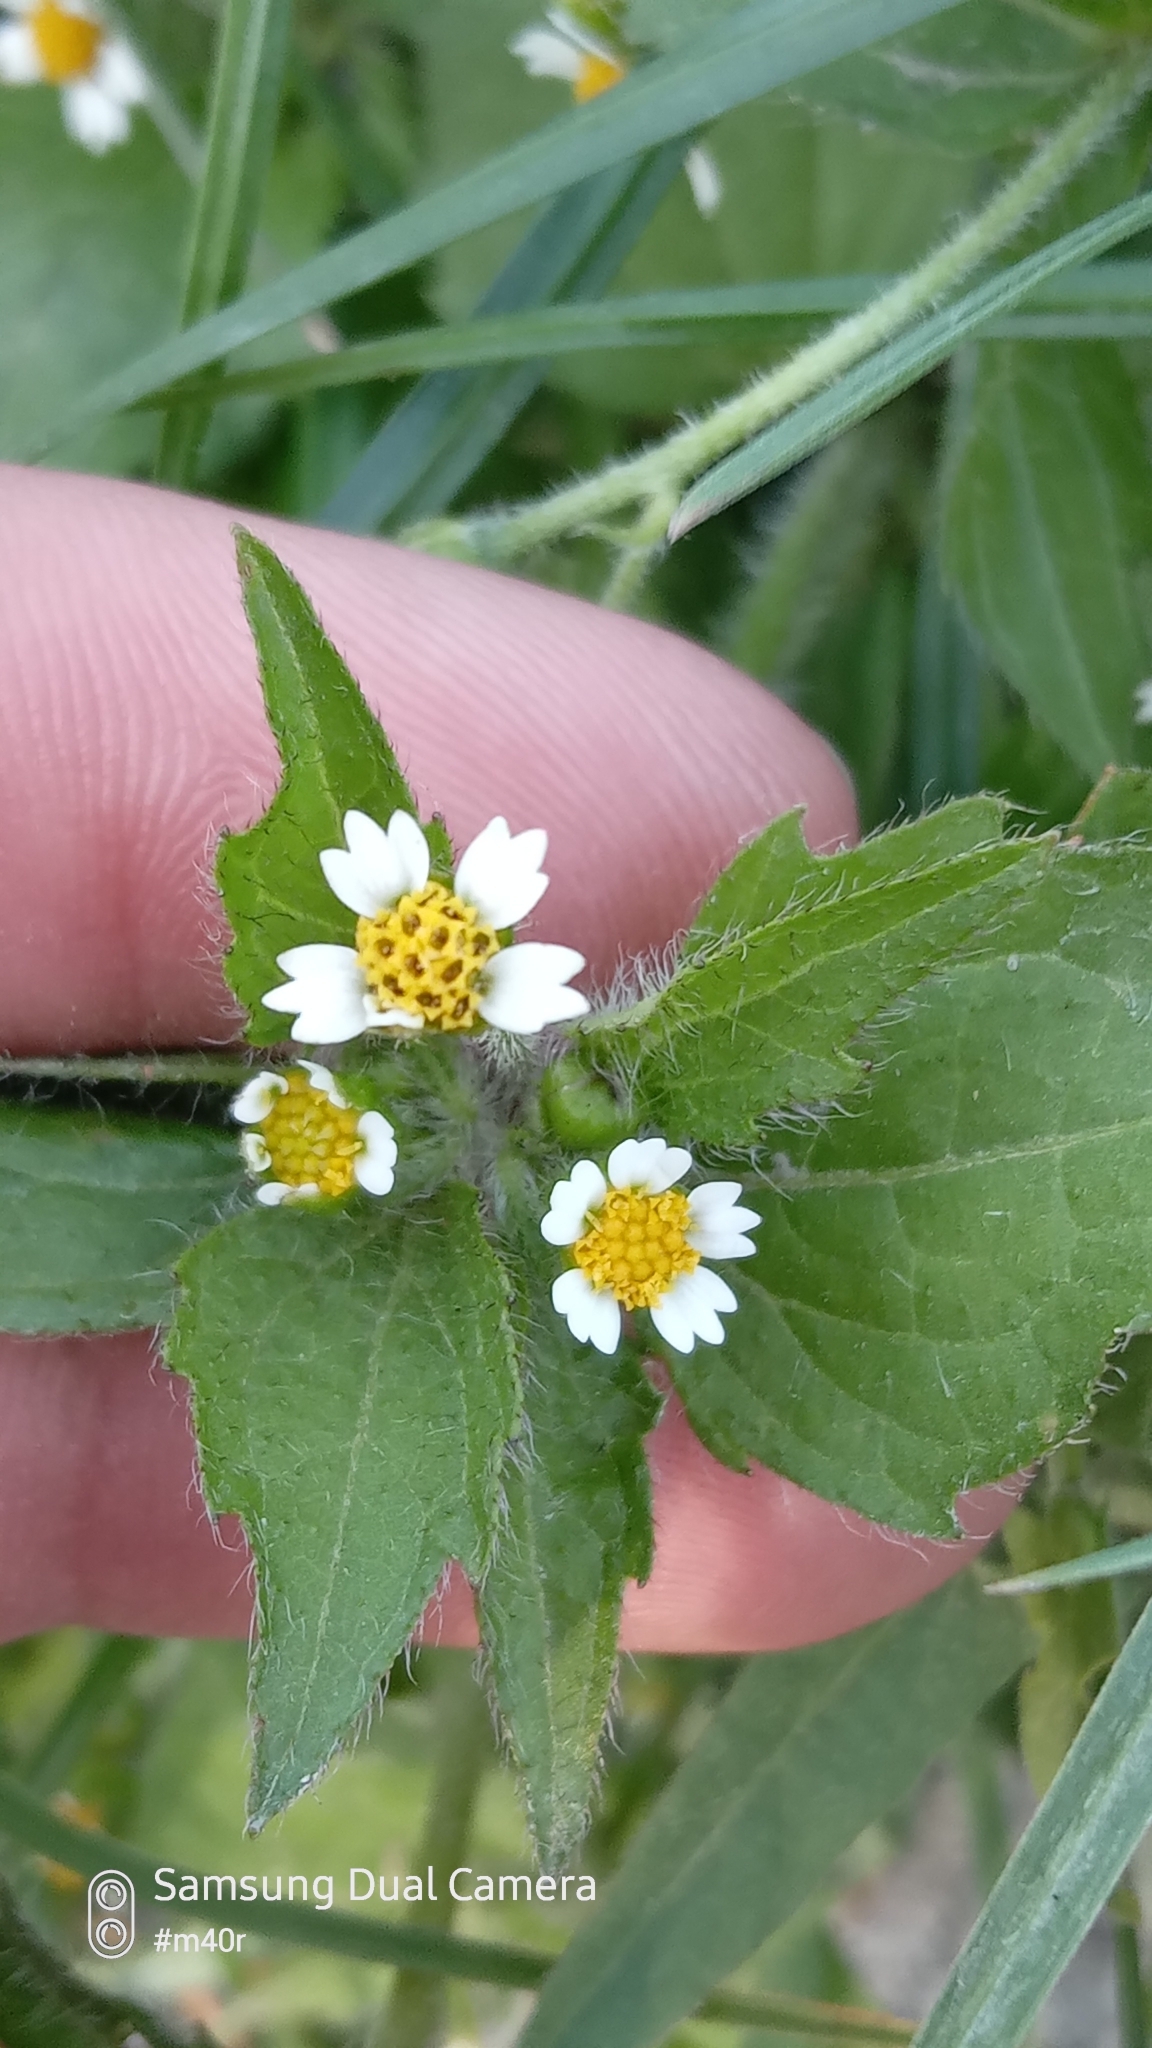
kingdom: Plantae
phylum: Tracheophyta
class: Magnoliopsida
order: Asterales
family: Asteraceae
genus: Galinsoga
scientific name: Galinsoga quadriradiata
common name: Shaggy soldier
